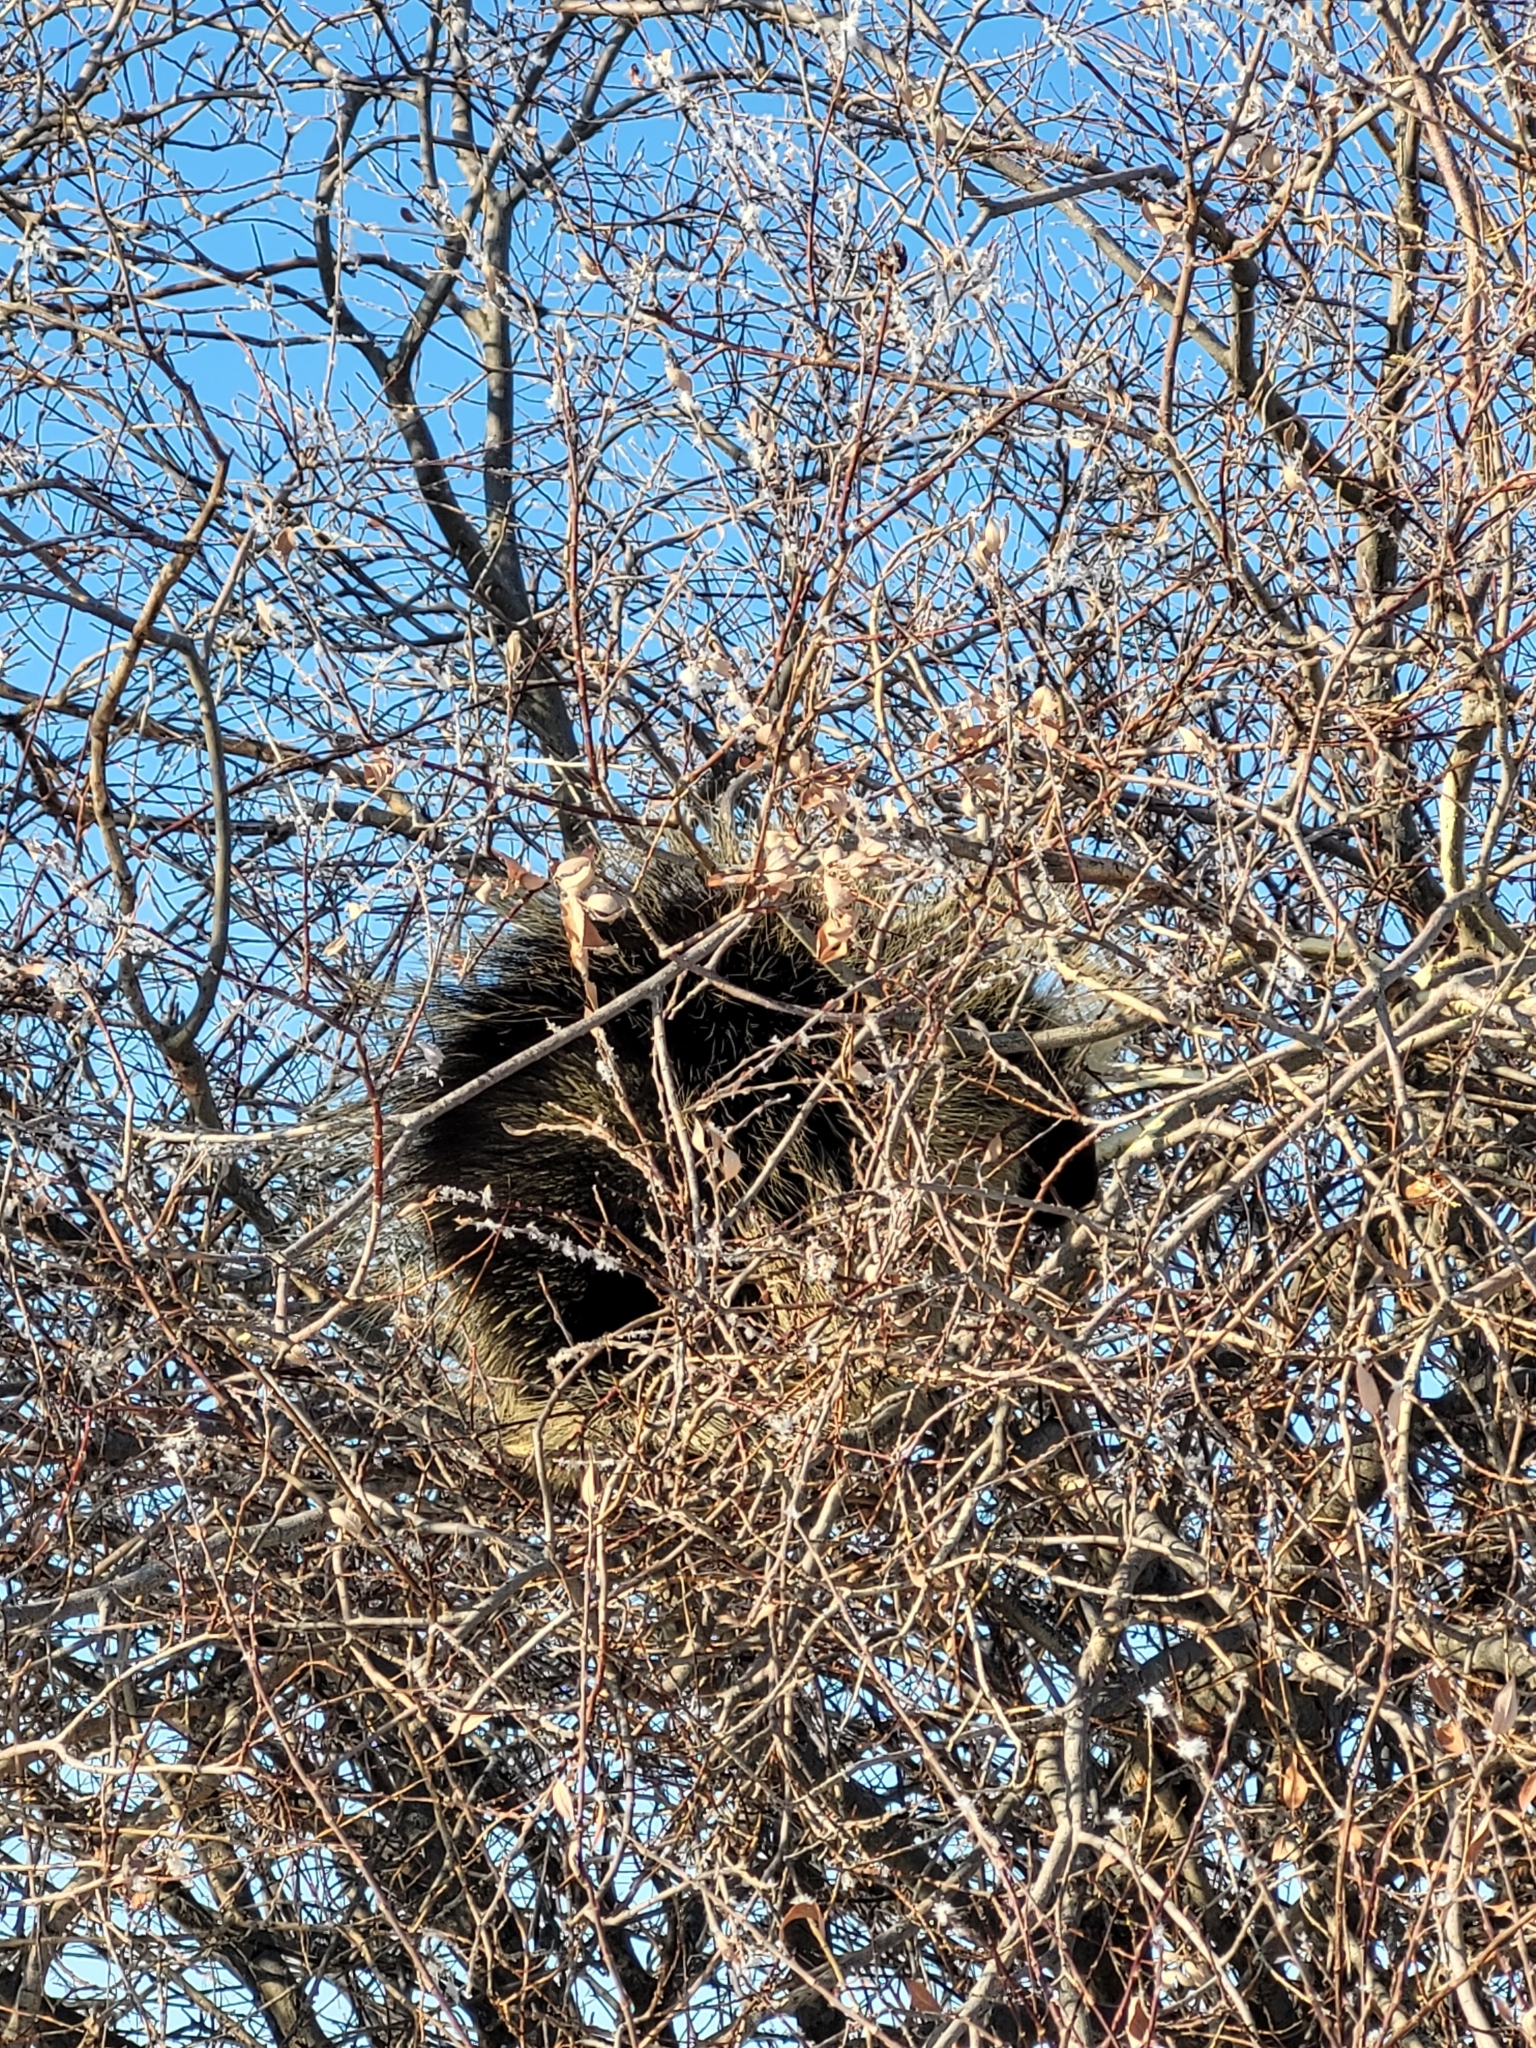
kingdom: Animalia
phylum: Chordata
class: Mammalia
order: Rodentia
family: Erethizontidae
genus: Erethizon
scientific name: Erethizon dorsatus
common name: North american porcupine
